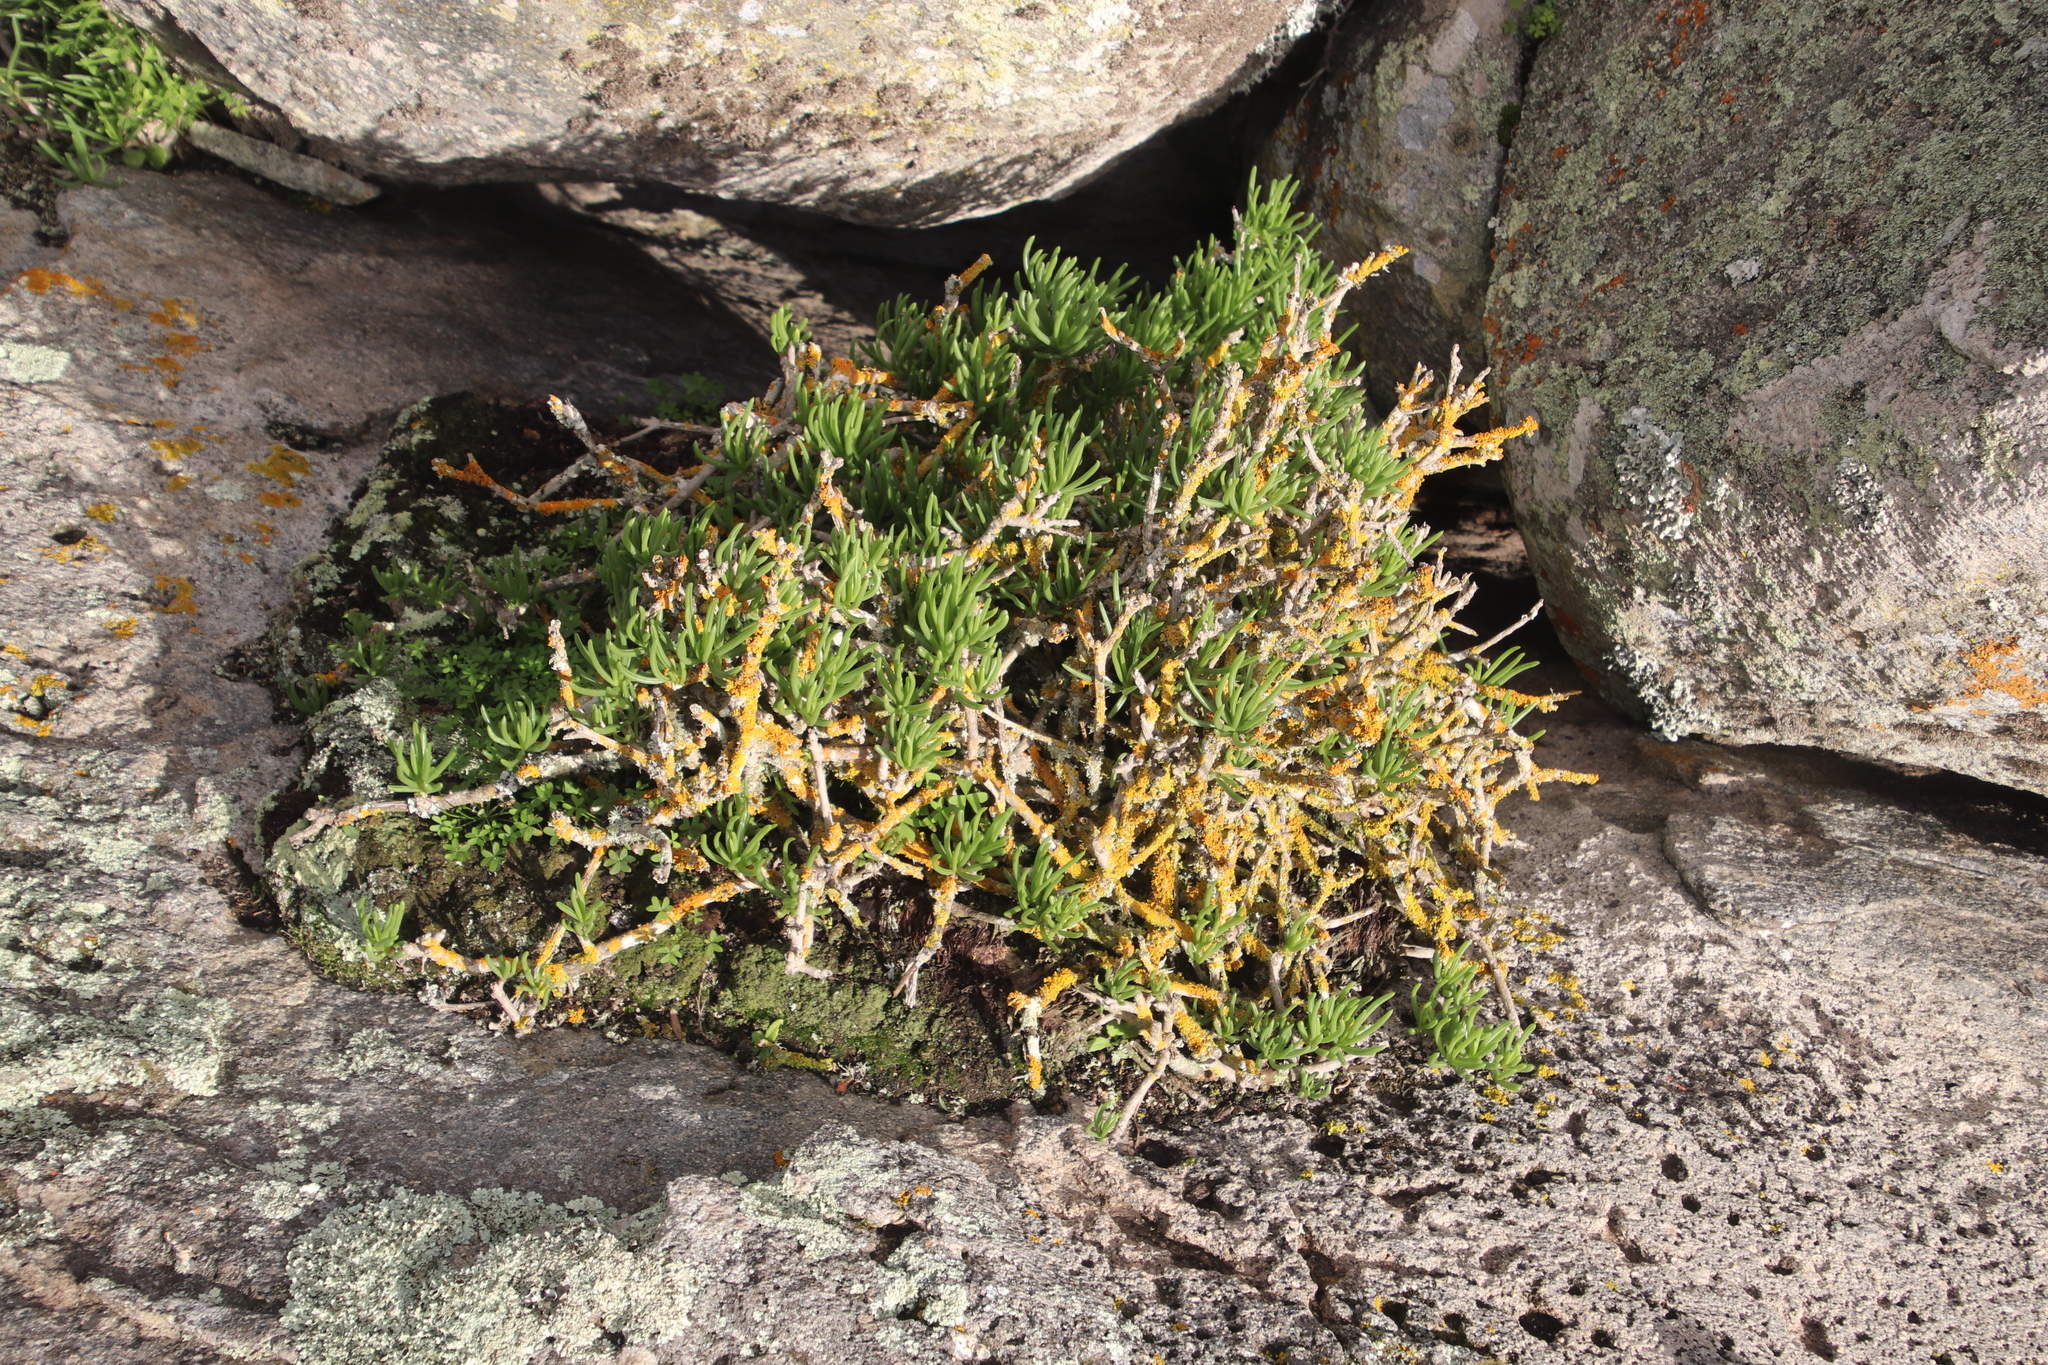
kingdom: Plantae
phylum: Tracheophyta
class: Magnoliopsida
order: Asterales
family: Asteraceae
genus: Curio
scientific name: Curio corymbifer
